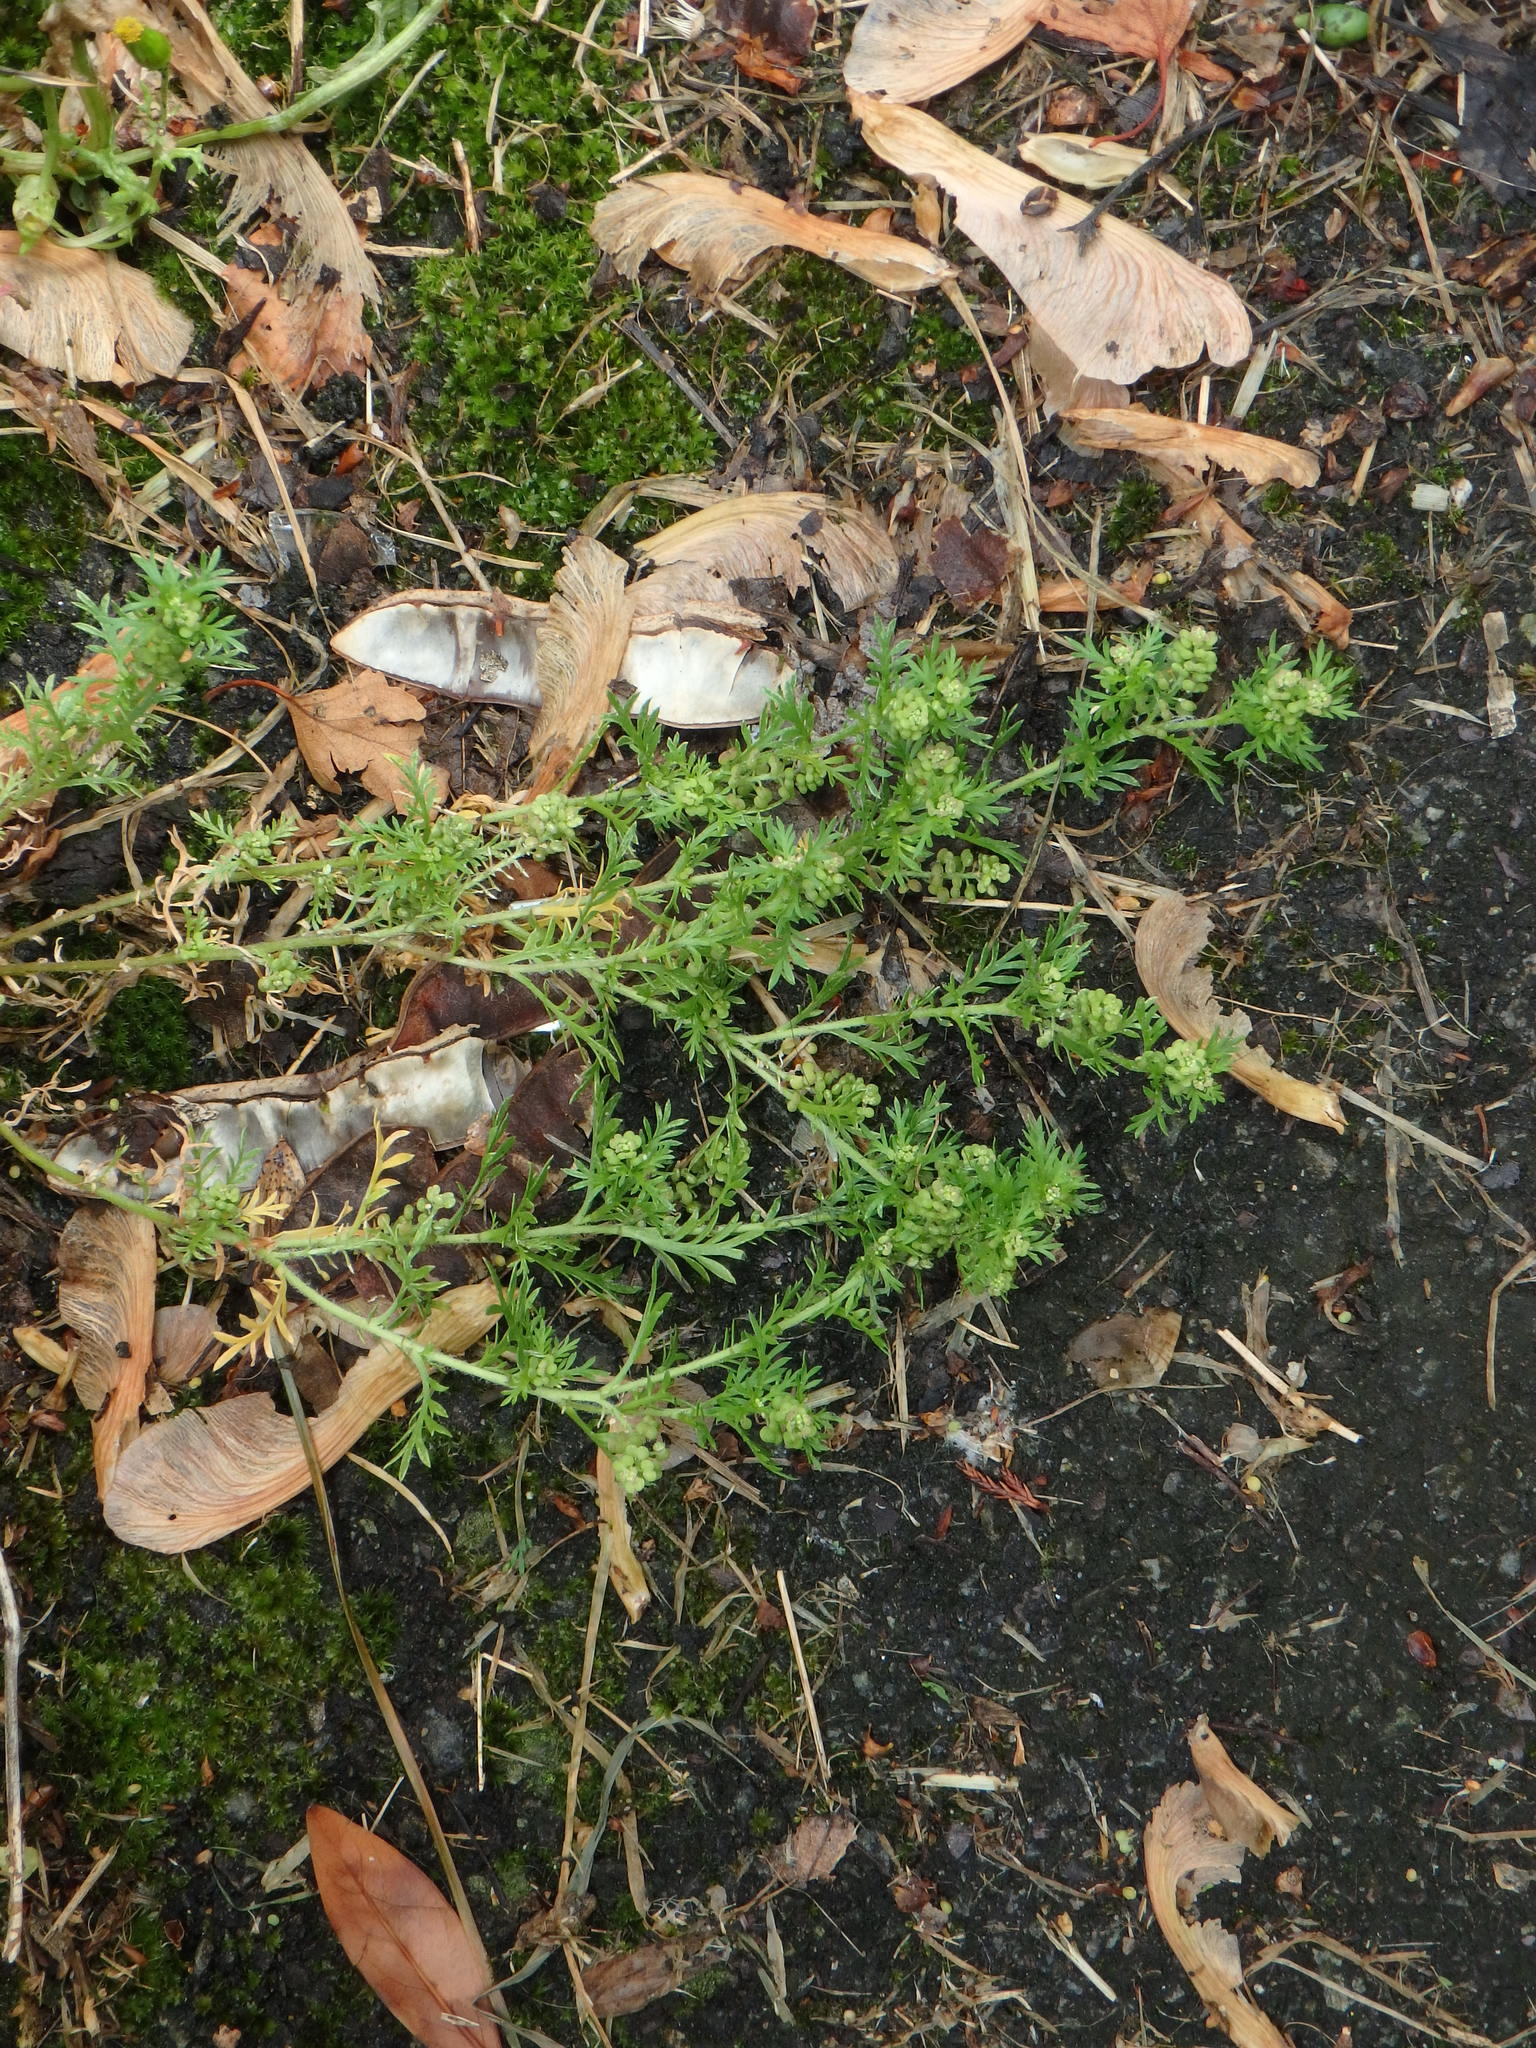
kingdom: Plantae
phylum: Tracheophyta
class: Magnoliopsida
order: Brassicales
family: Brassicaceae
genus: Lepidium
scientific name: Lepidium didymum
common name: Lesser swinecress
